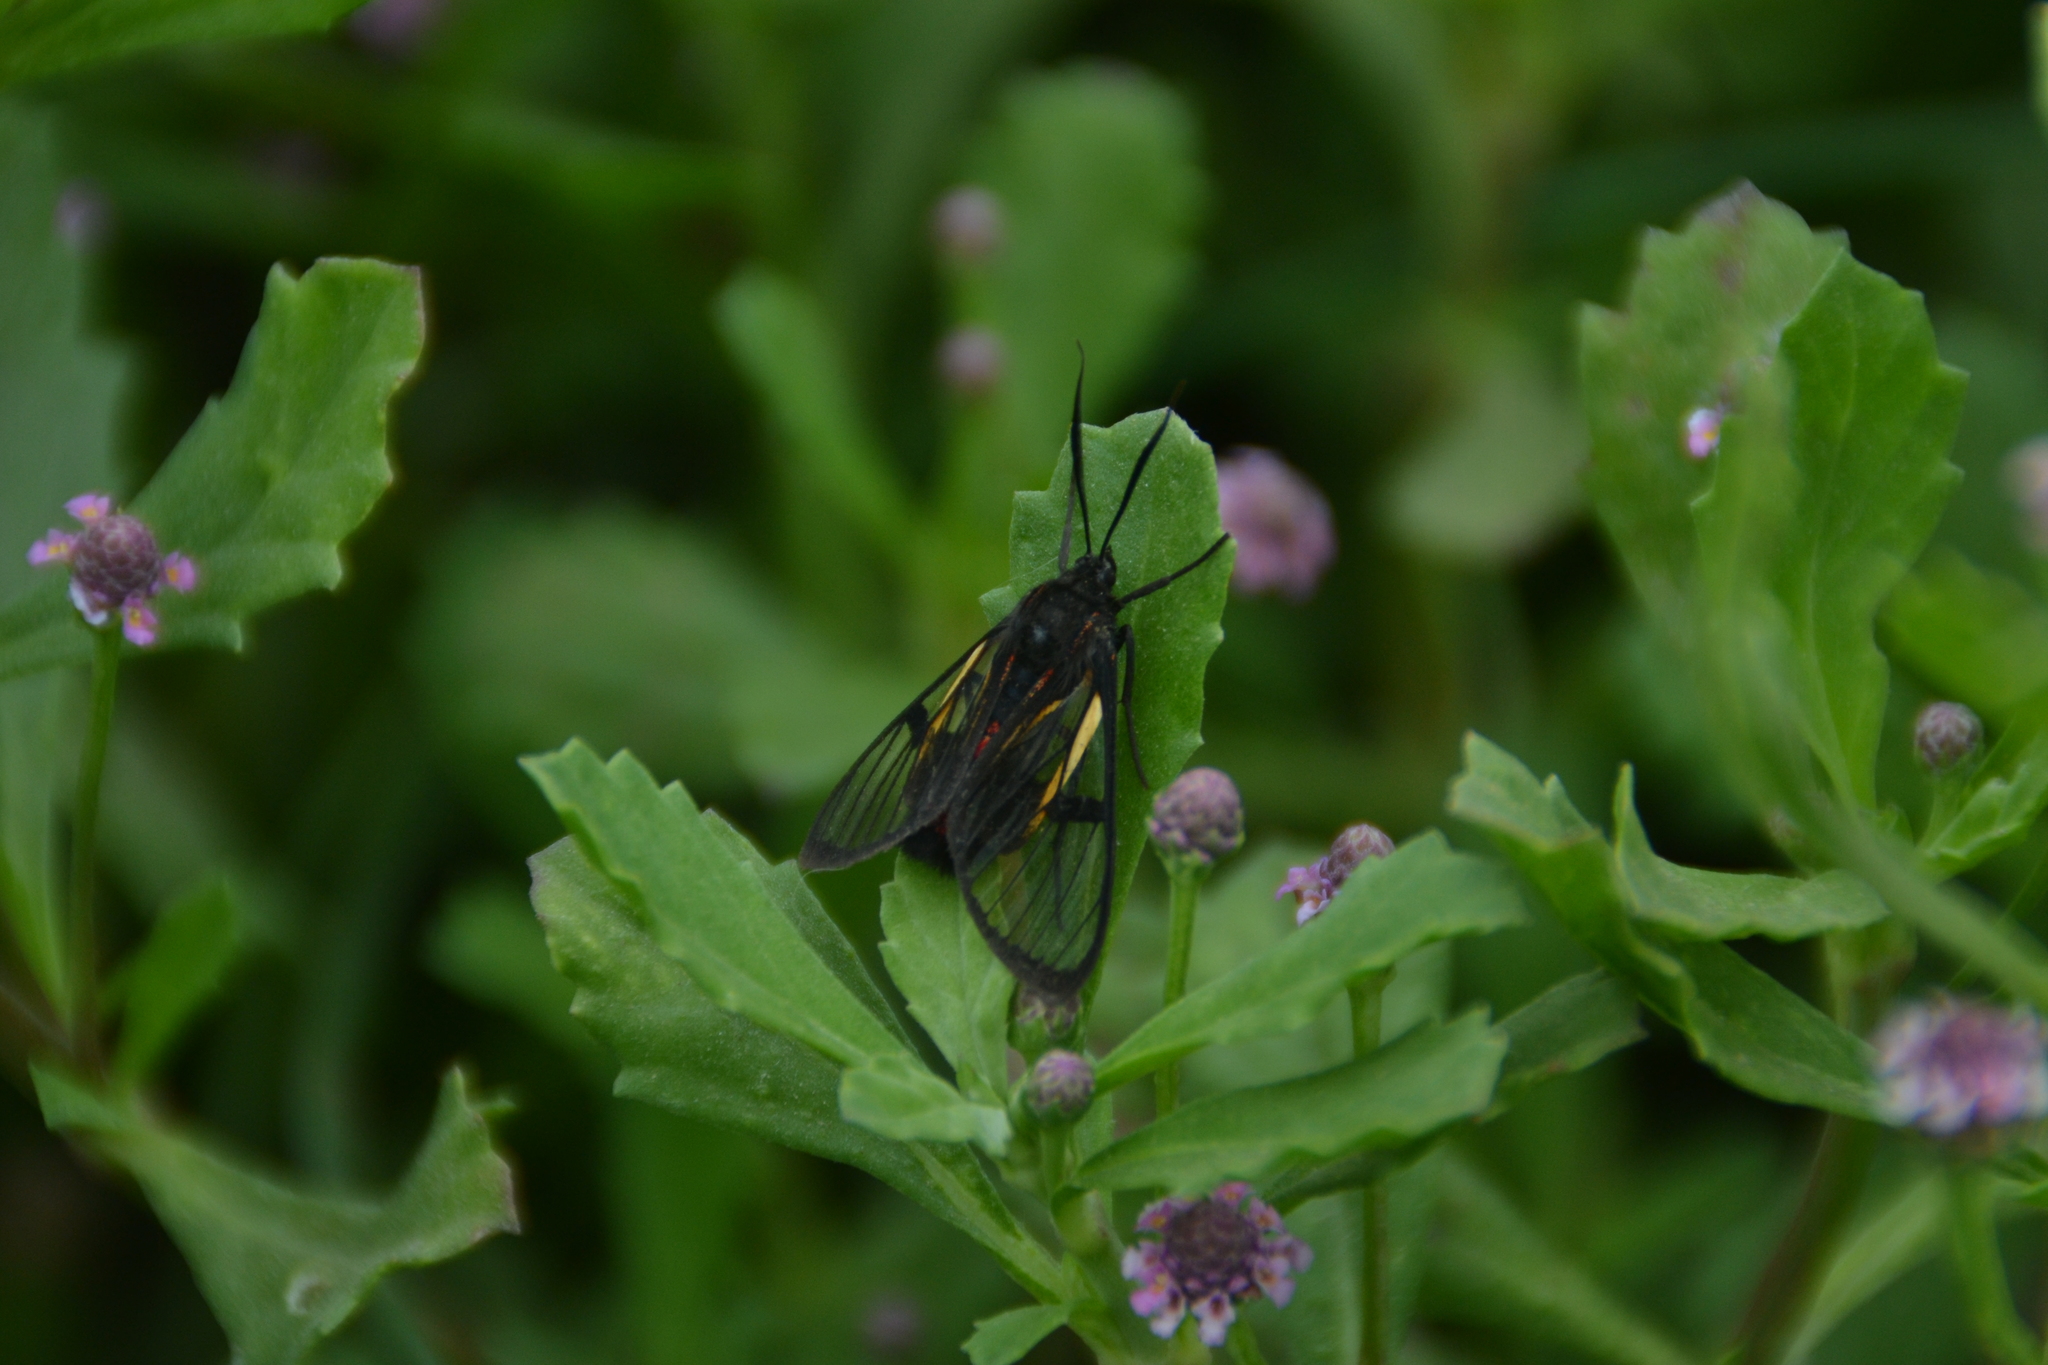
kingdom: Animalia
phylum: Arthropoda
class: Insecta
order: Lepidoptera
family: Erebidae
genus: Dinia
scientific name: Dinia subapicalis
